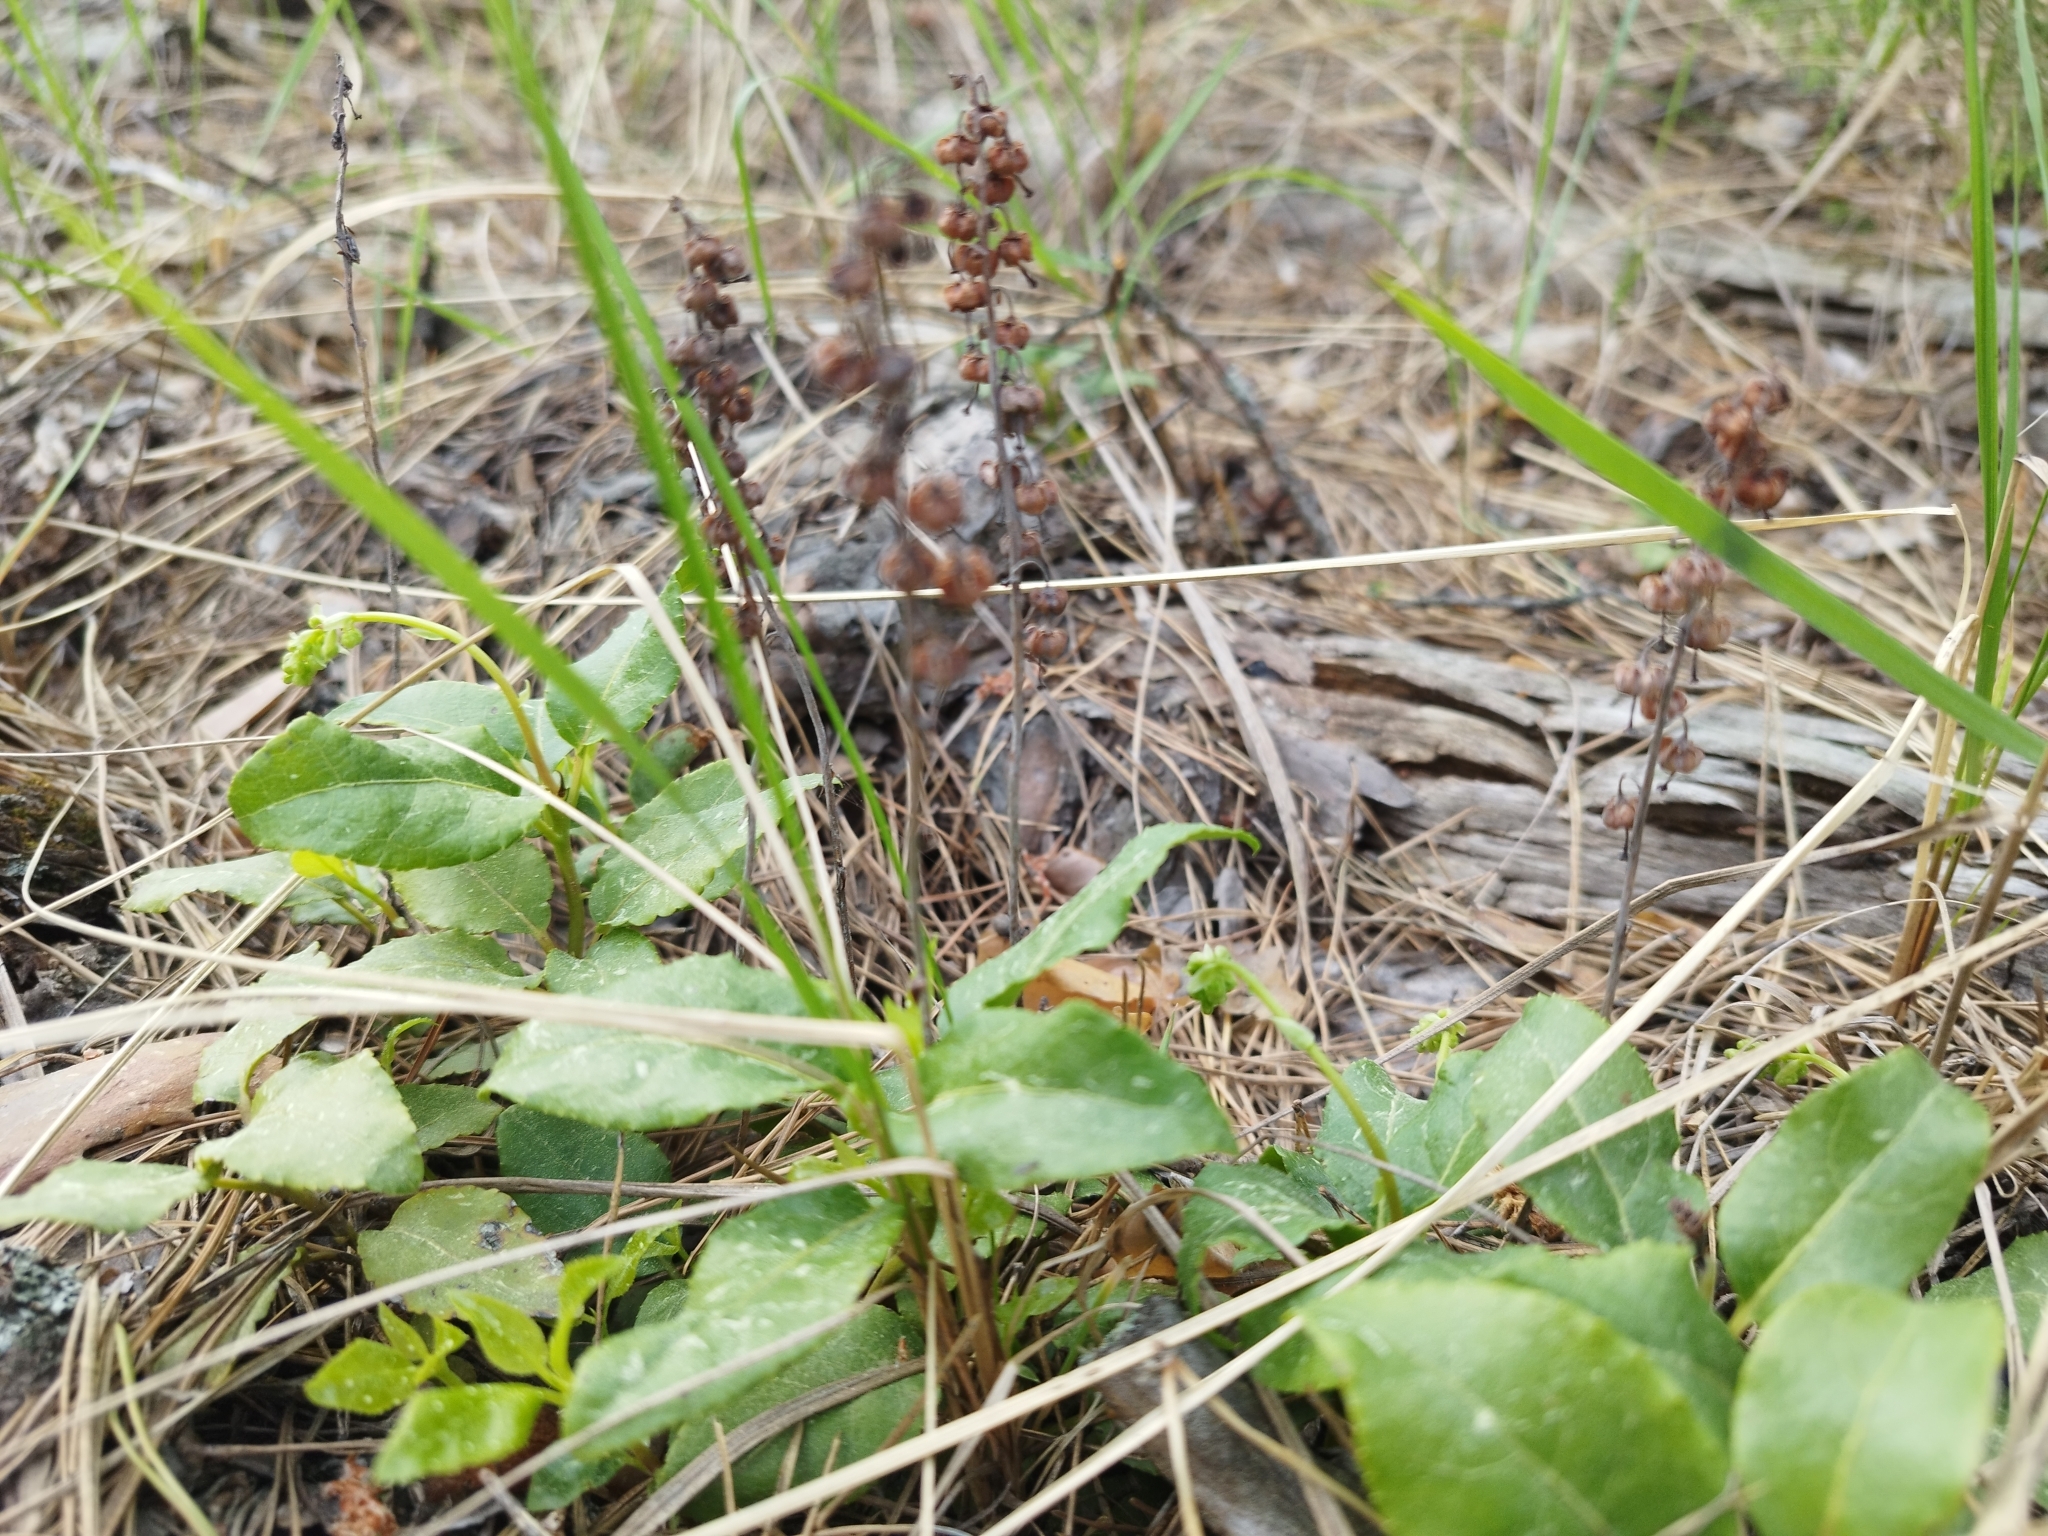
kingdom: Plantae
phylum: Tracheophyta
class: Magnoliopsida
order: Ericales
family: Ericaceae
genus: Orthilia
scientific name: Orthilia secunda
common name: One-sided orthilia
